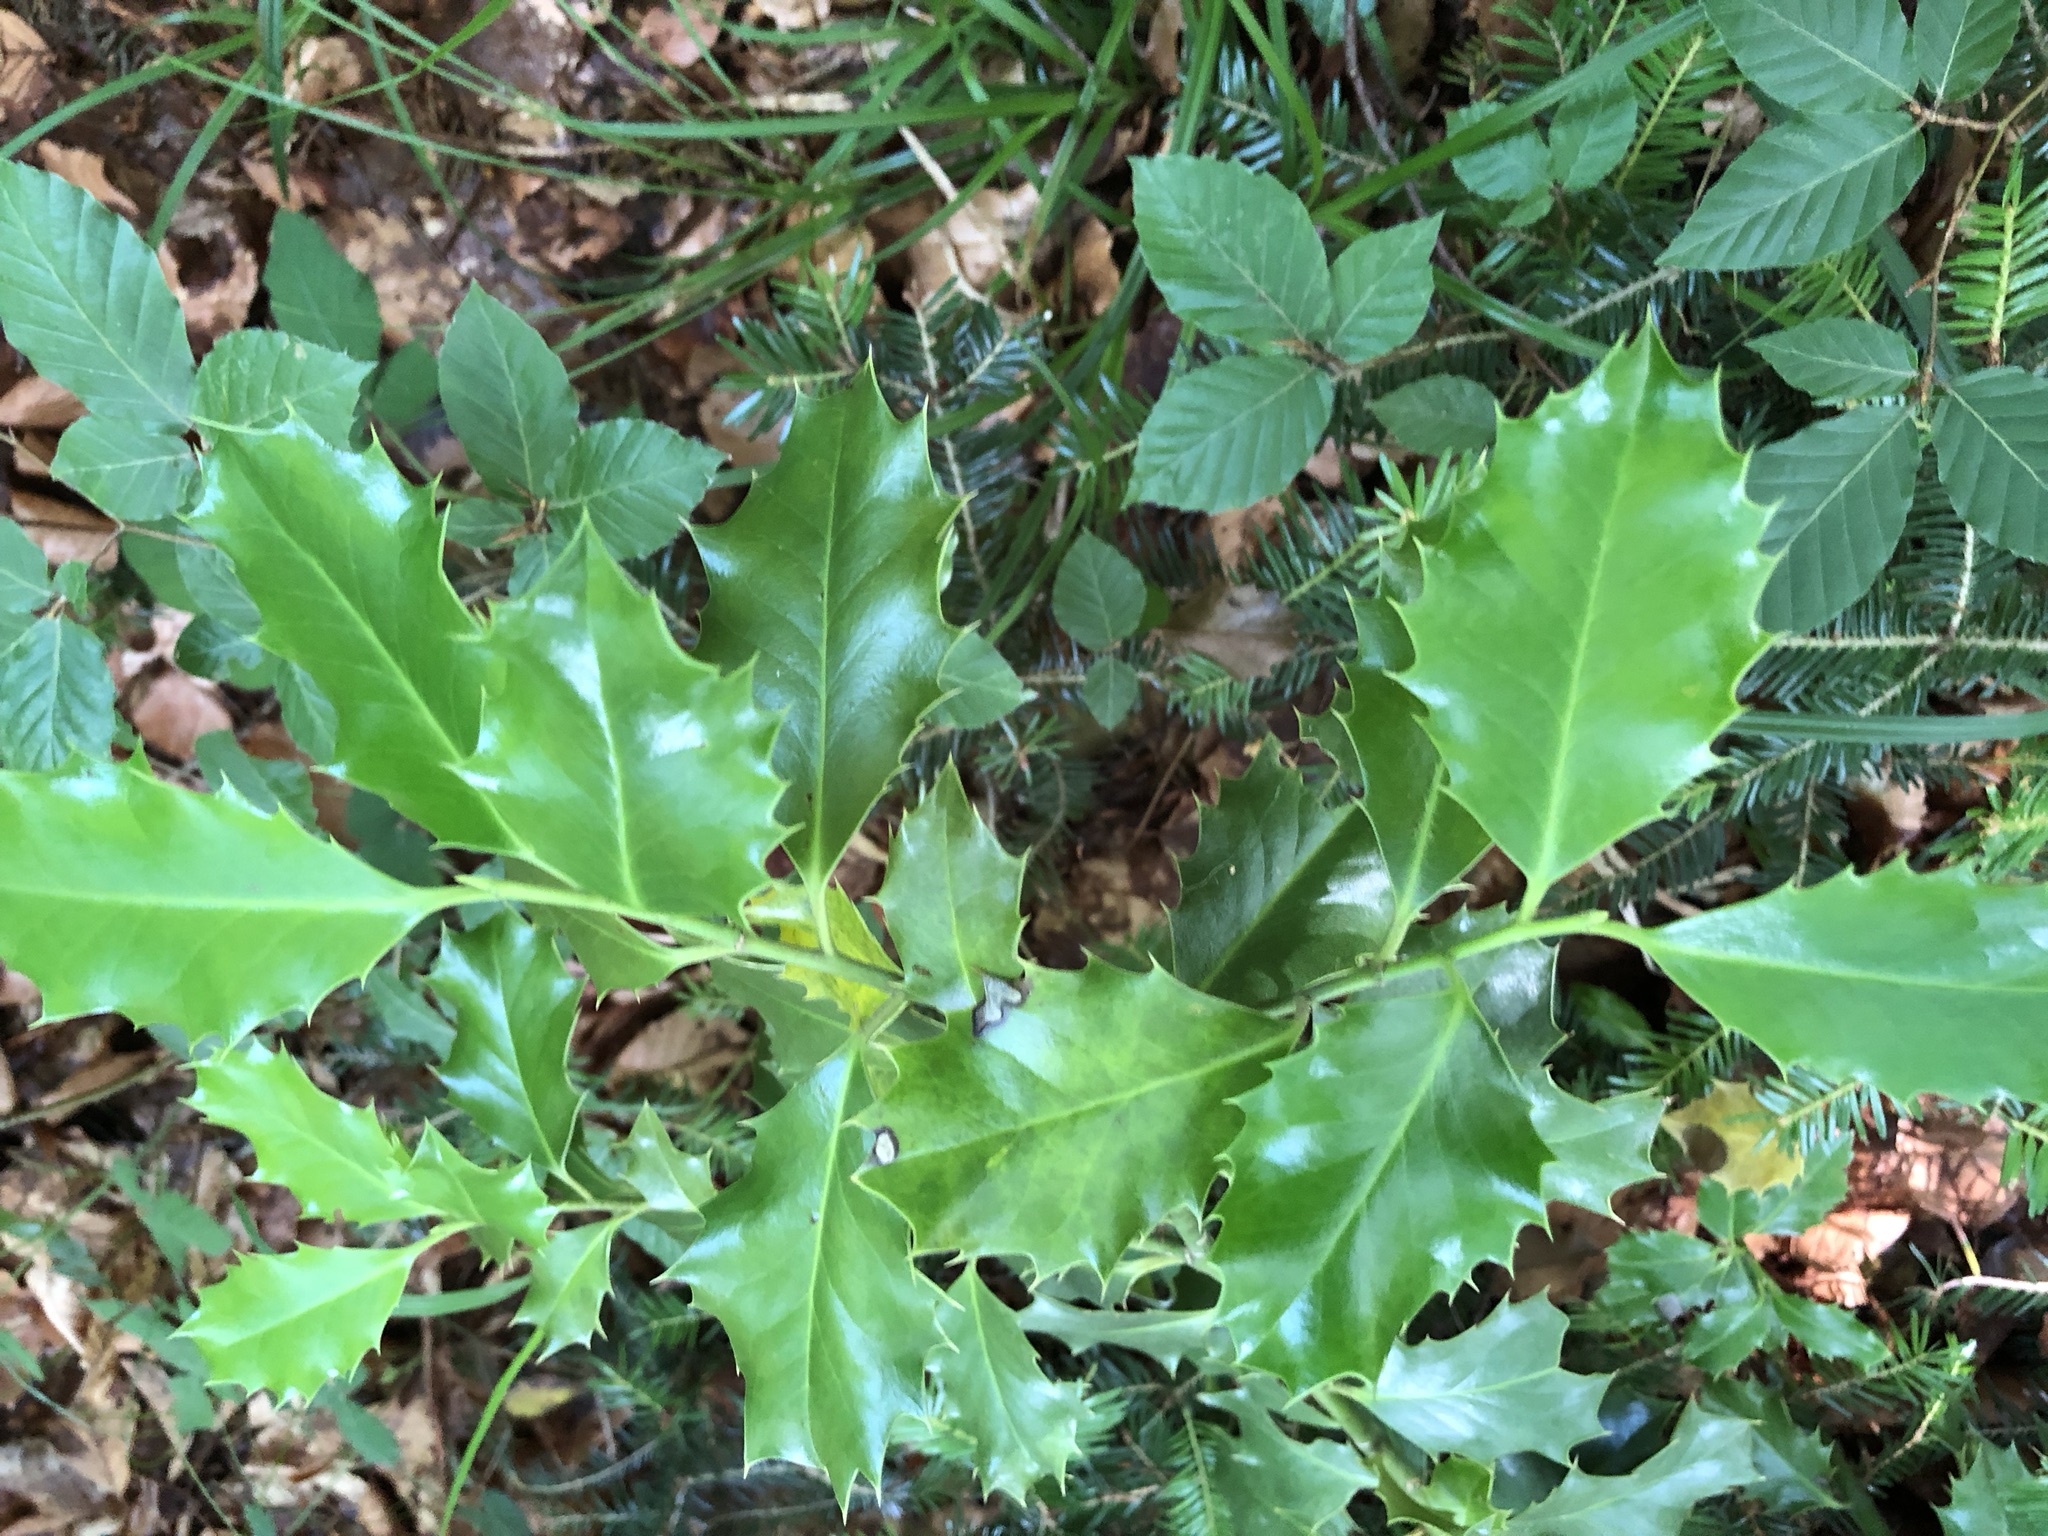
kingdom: Plantae
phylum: Tracheophyta
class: Magnoliopsida
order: Aquifoliales
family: Aquifoliaceae
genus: Ilex
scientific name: Ilex aquifolium
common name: English holly
